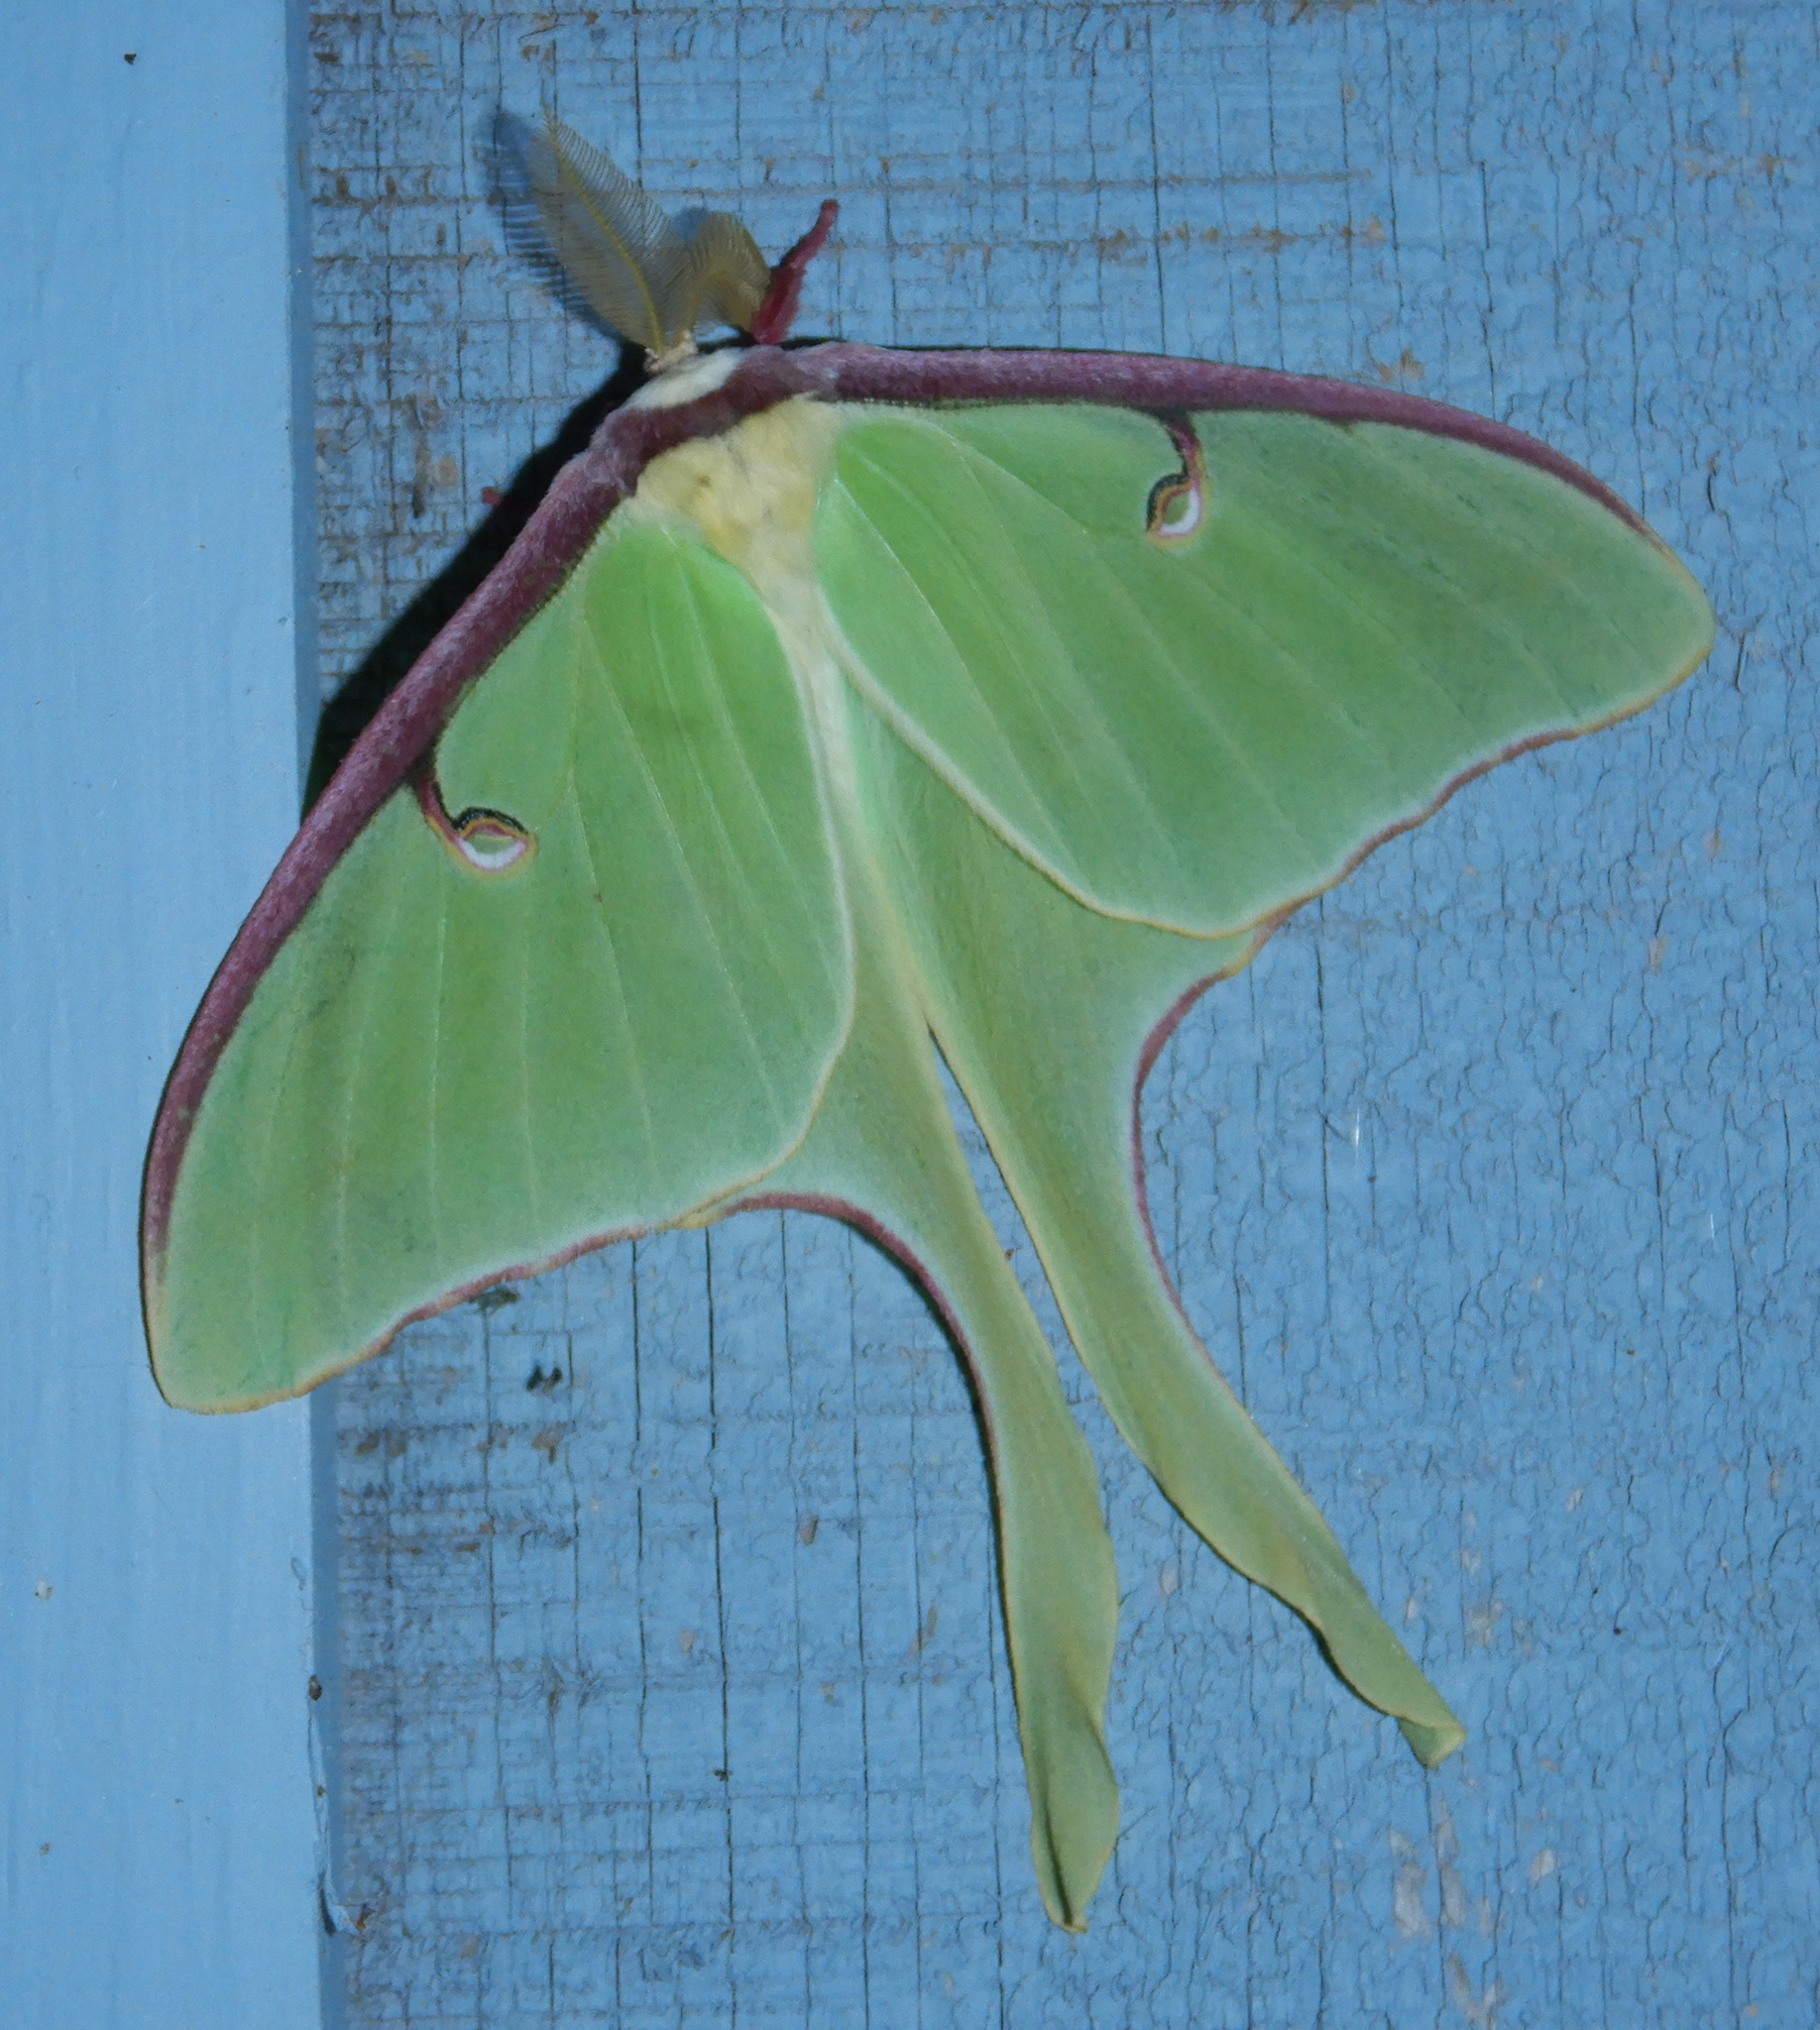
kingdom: Animalia
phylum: Arthropoda
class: Insecta
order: Lepidoptera
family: Saturniidae
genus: Actias
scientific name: Actias luna
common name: Luna moth
